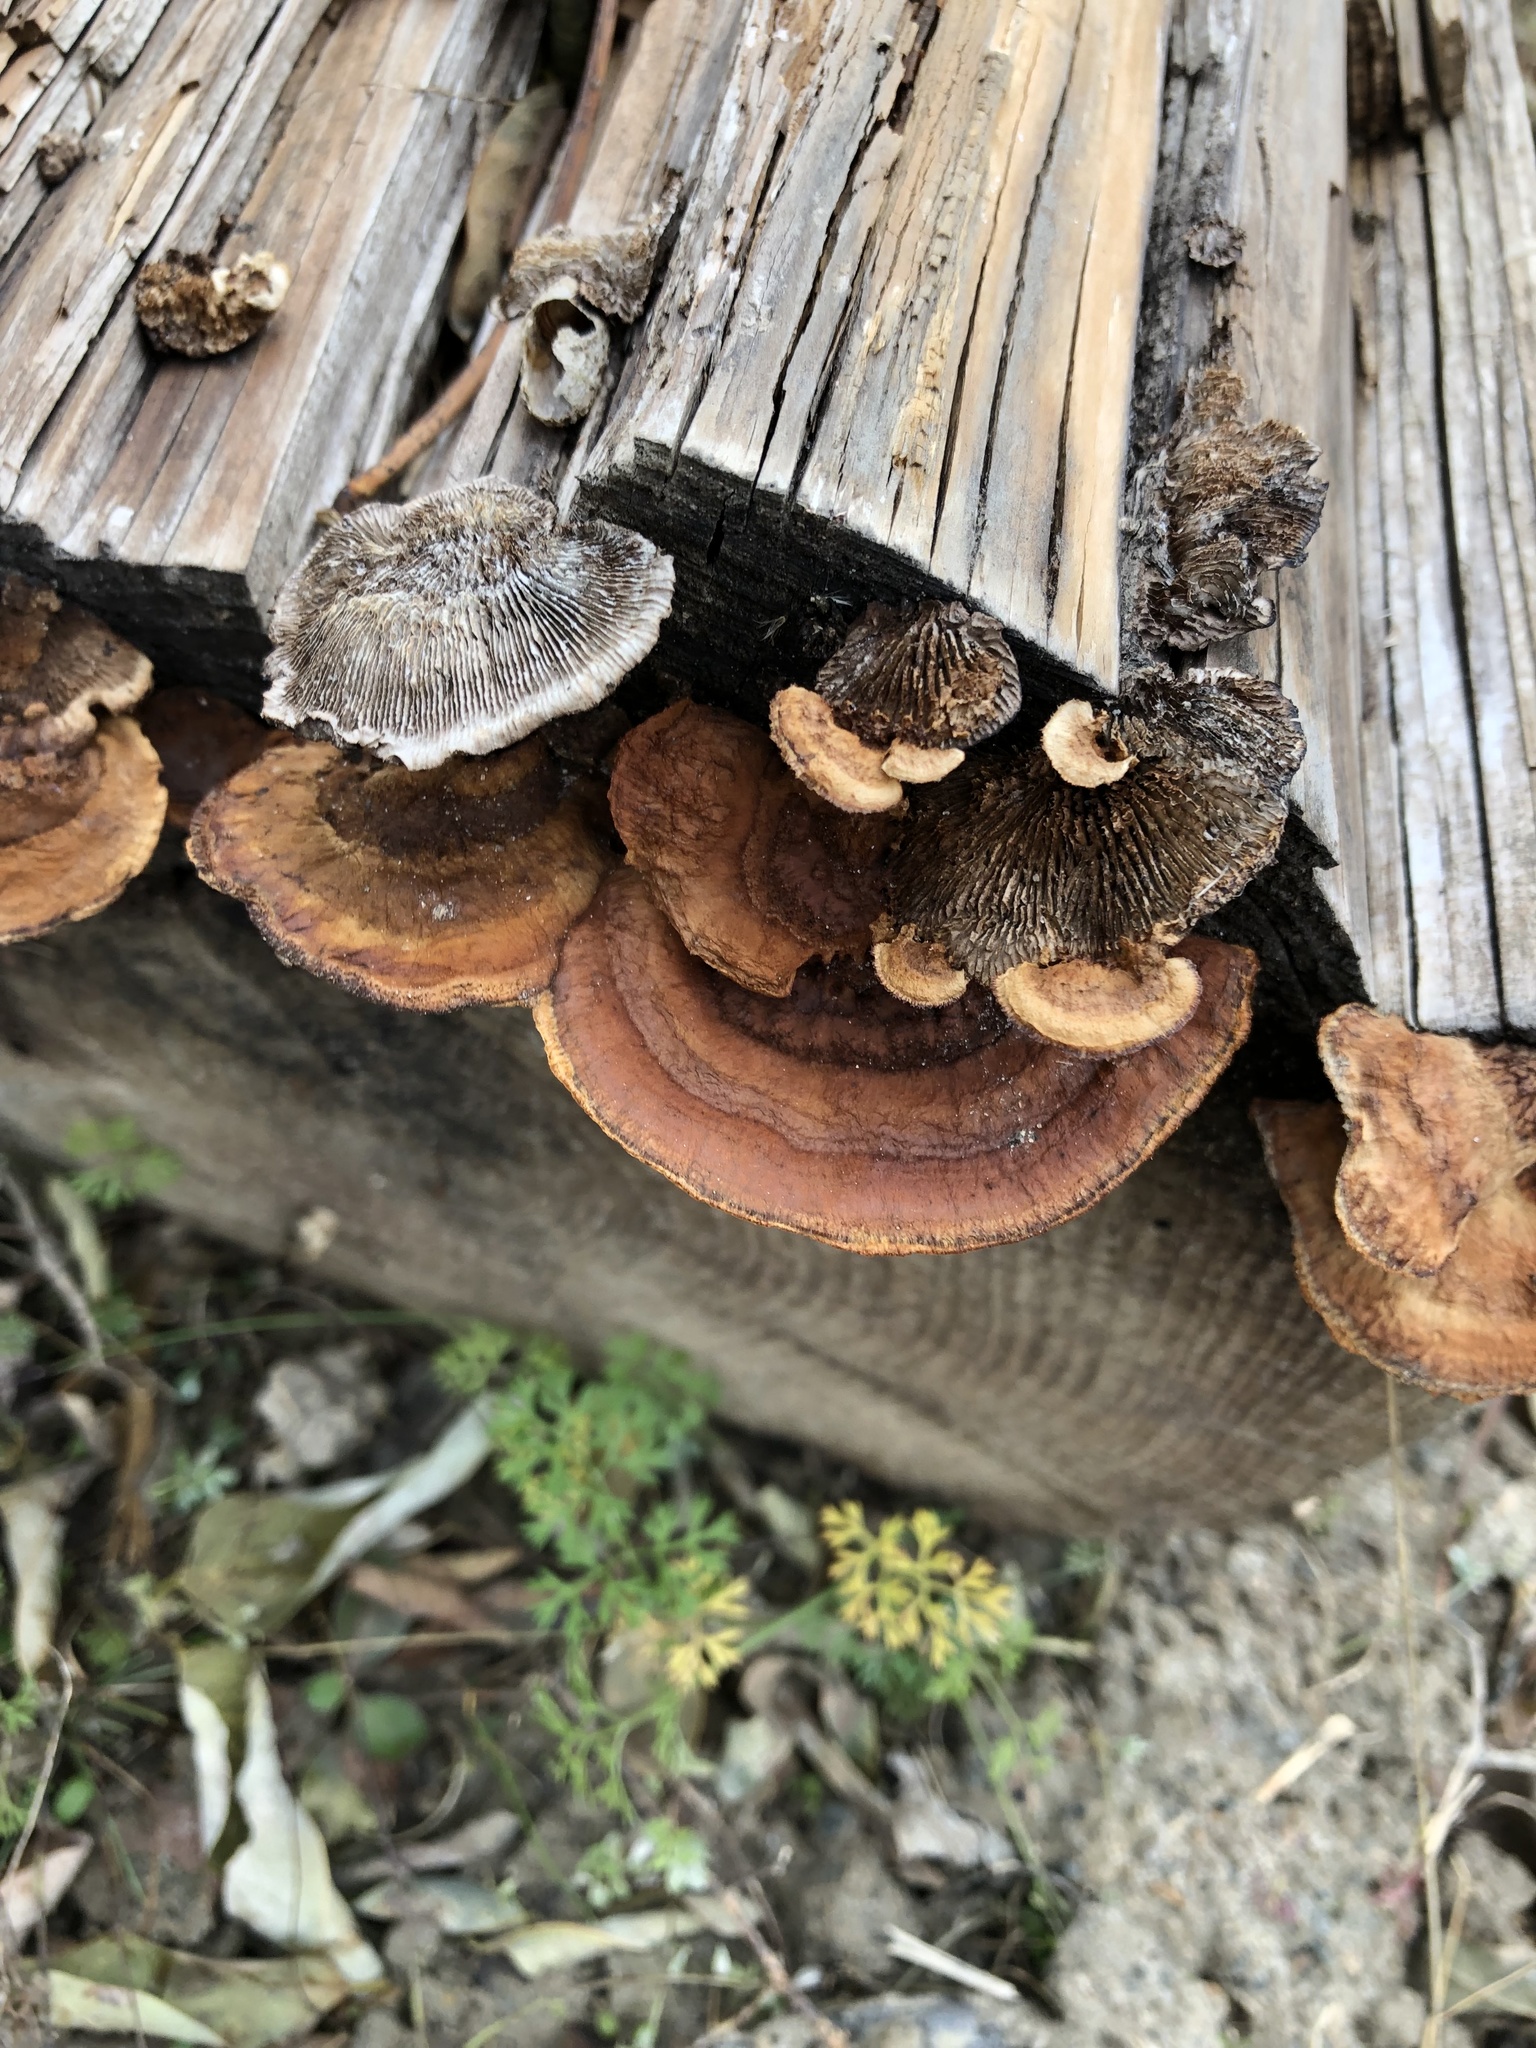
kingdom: Fungi
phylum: Basidiomycota
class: Agaricomycetes
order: Gloeophyllales
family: Gloeophyllaceae
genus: Gloeophyllum
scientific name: Gloeophyllum sepiarium
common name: Conifer mazegill
